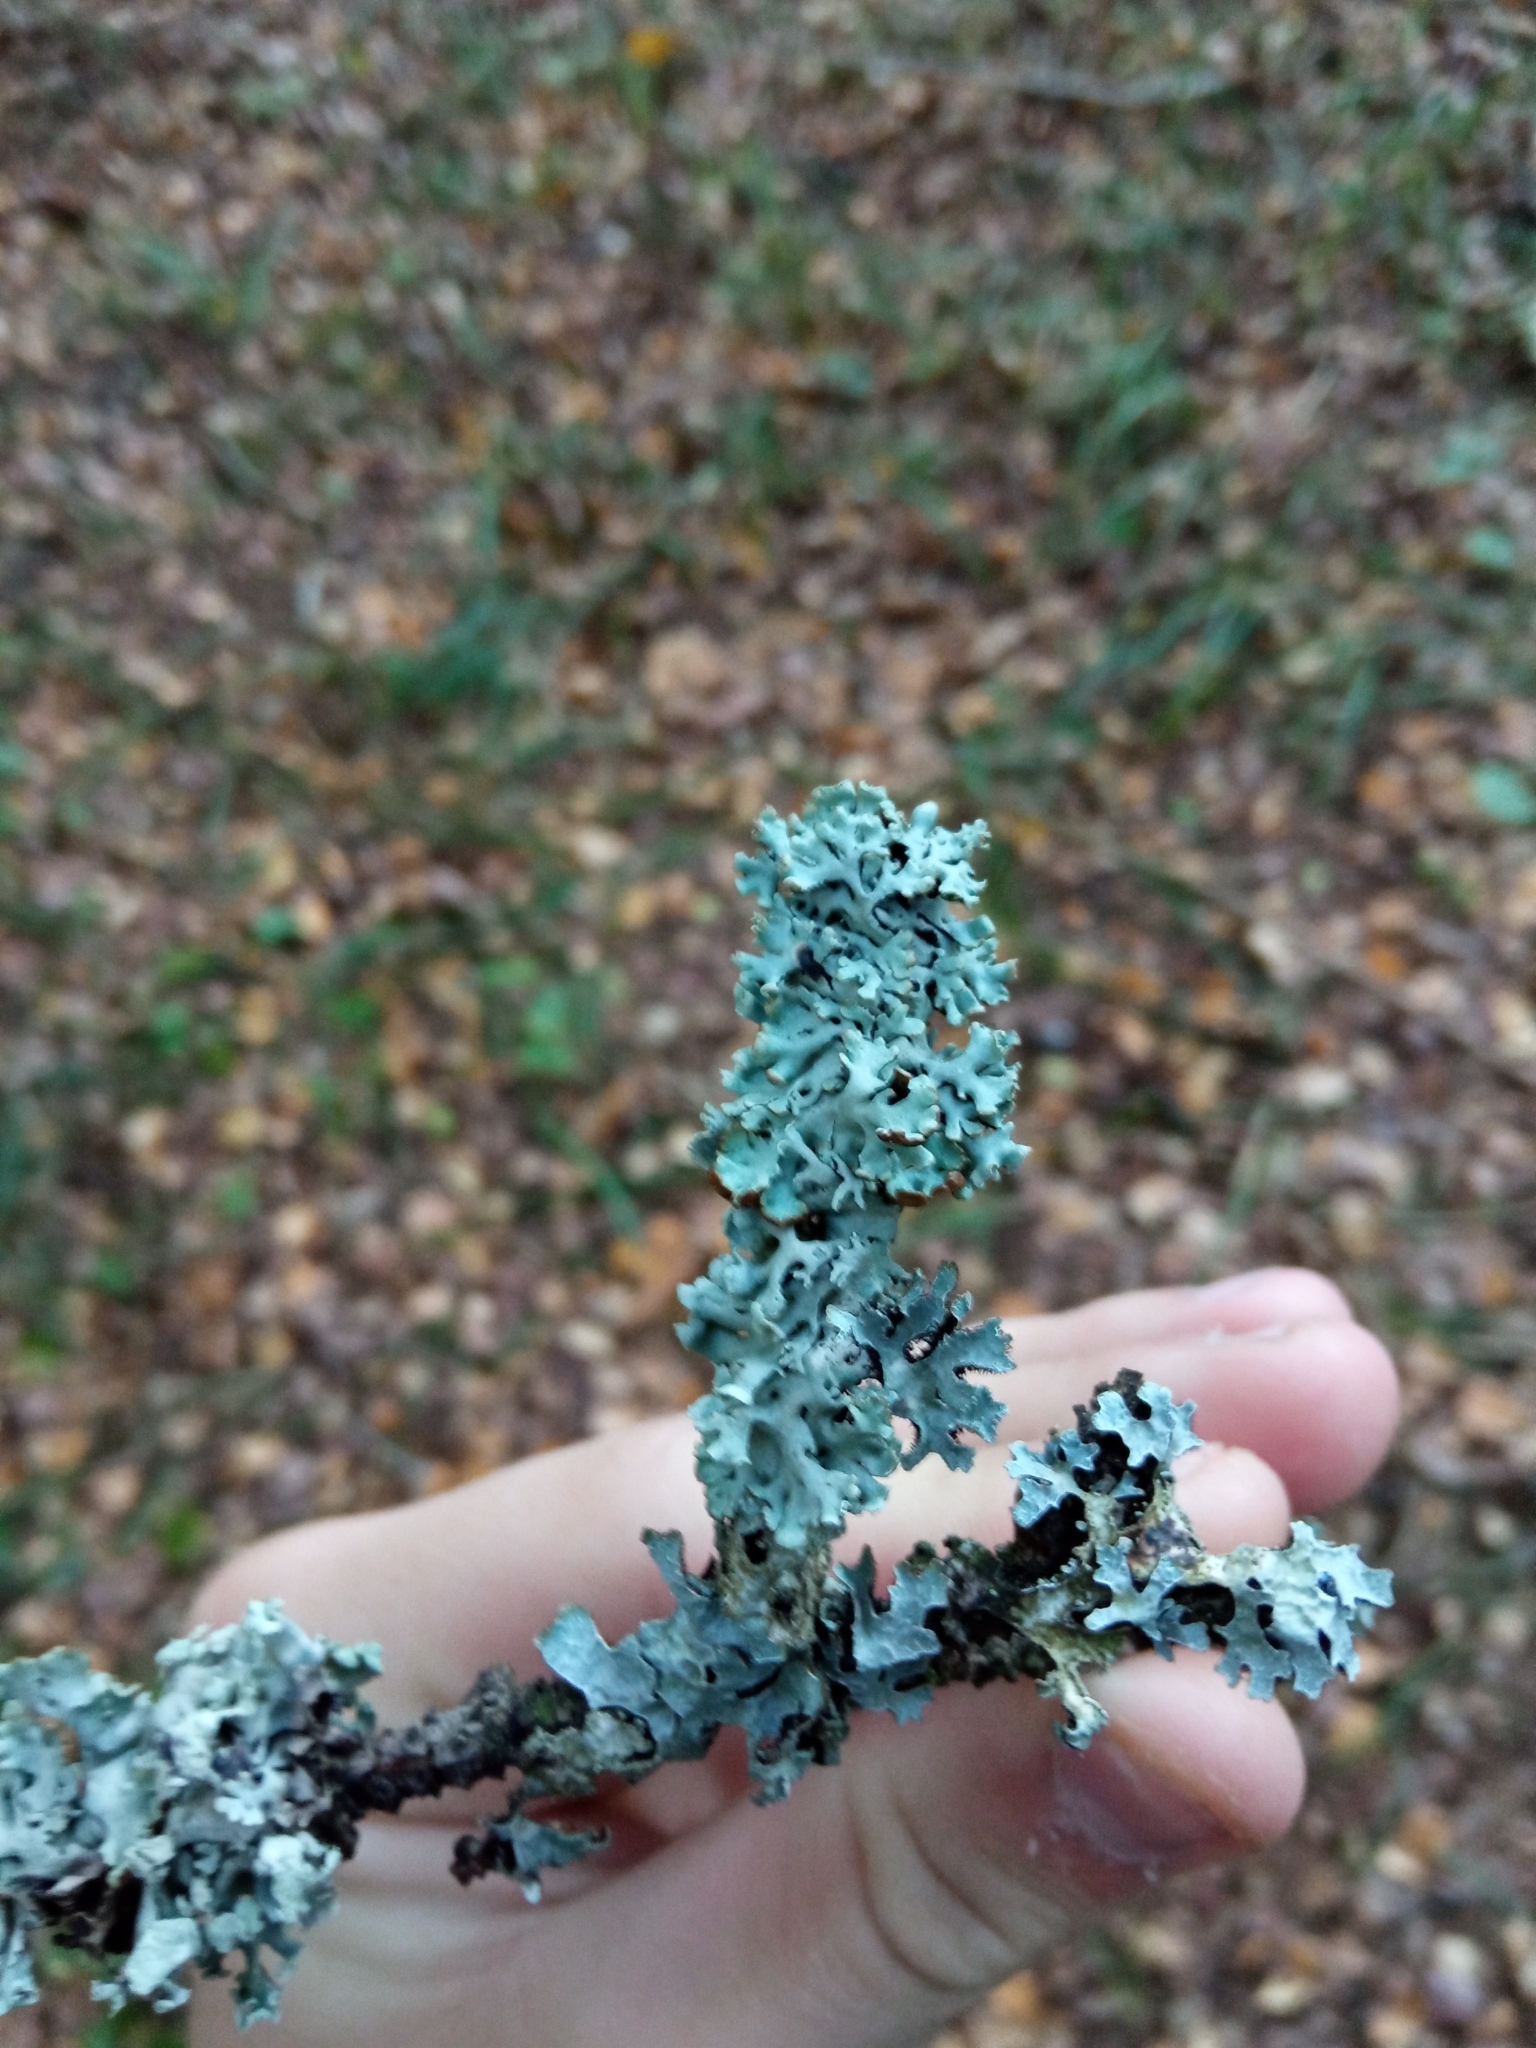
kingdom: Fungi
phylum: Ascomycota
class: Lecanoromycetes
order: Lecanorales
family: Parmeliaceae
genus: Hypogymnia
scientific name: Hypogymnia physodes
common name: Dark crottle
